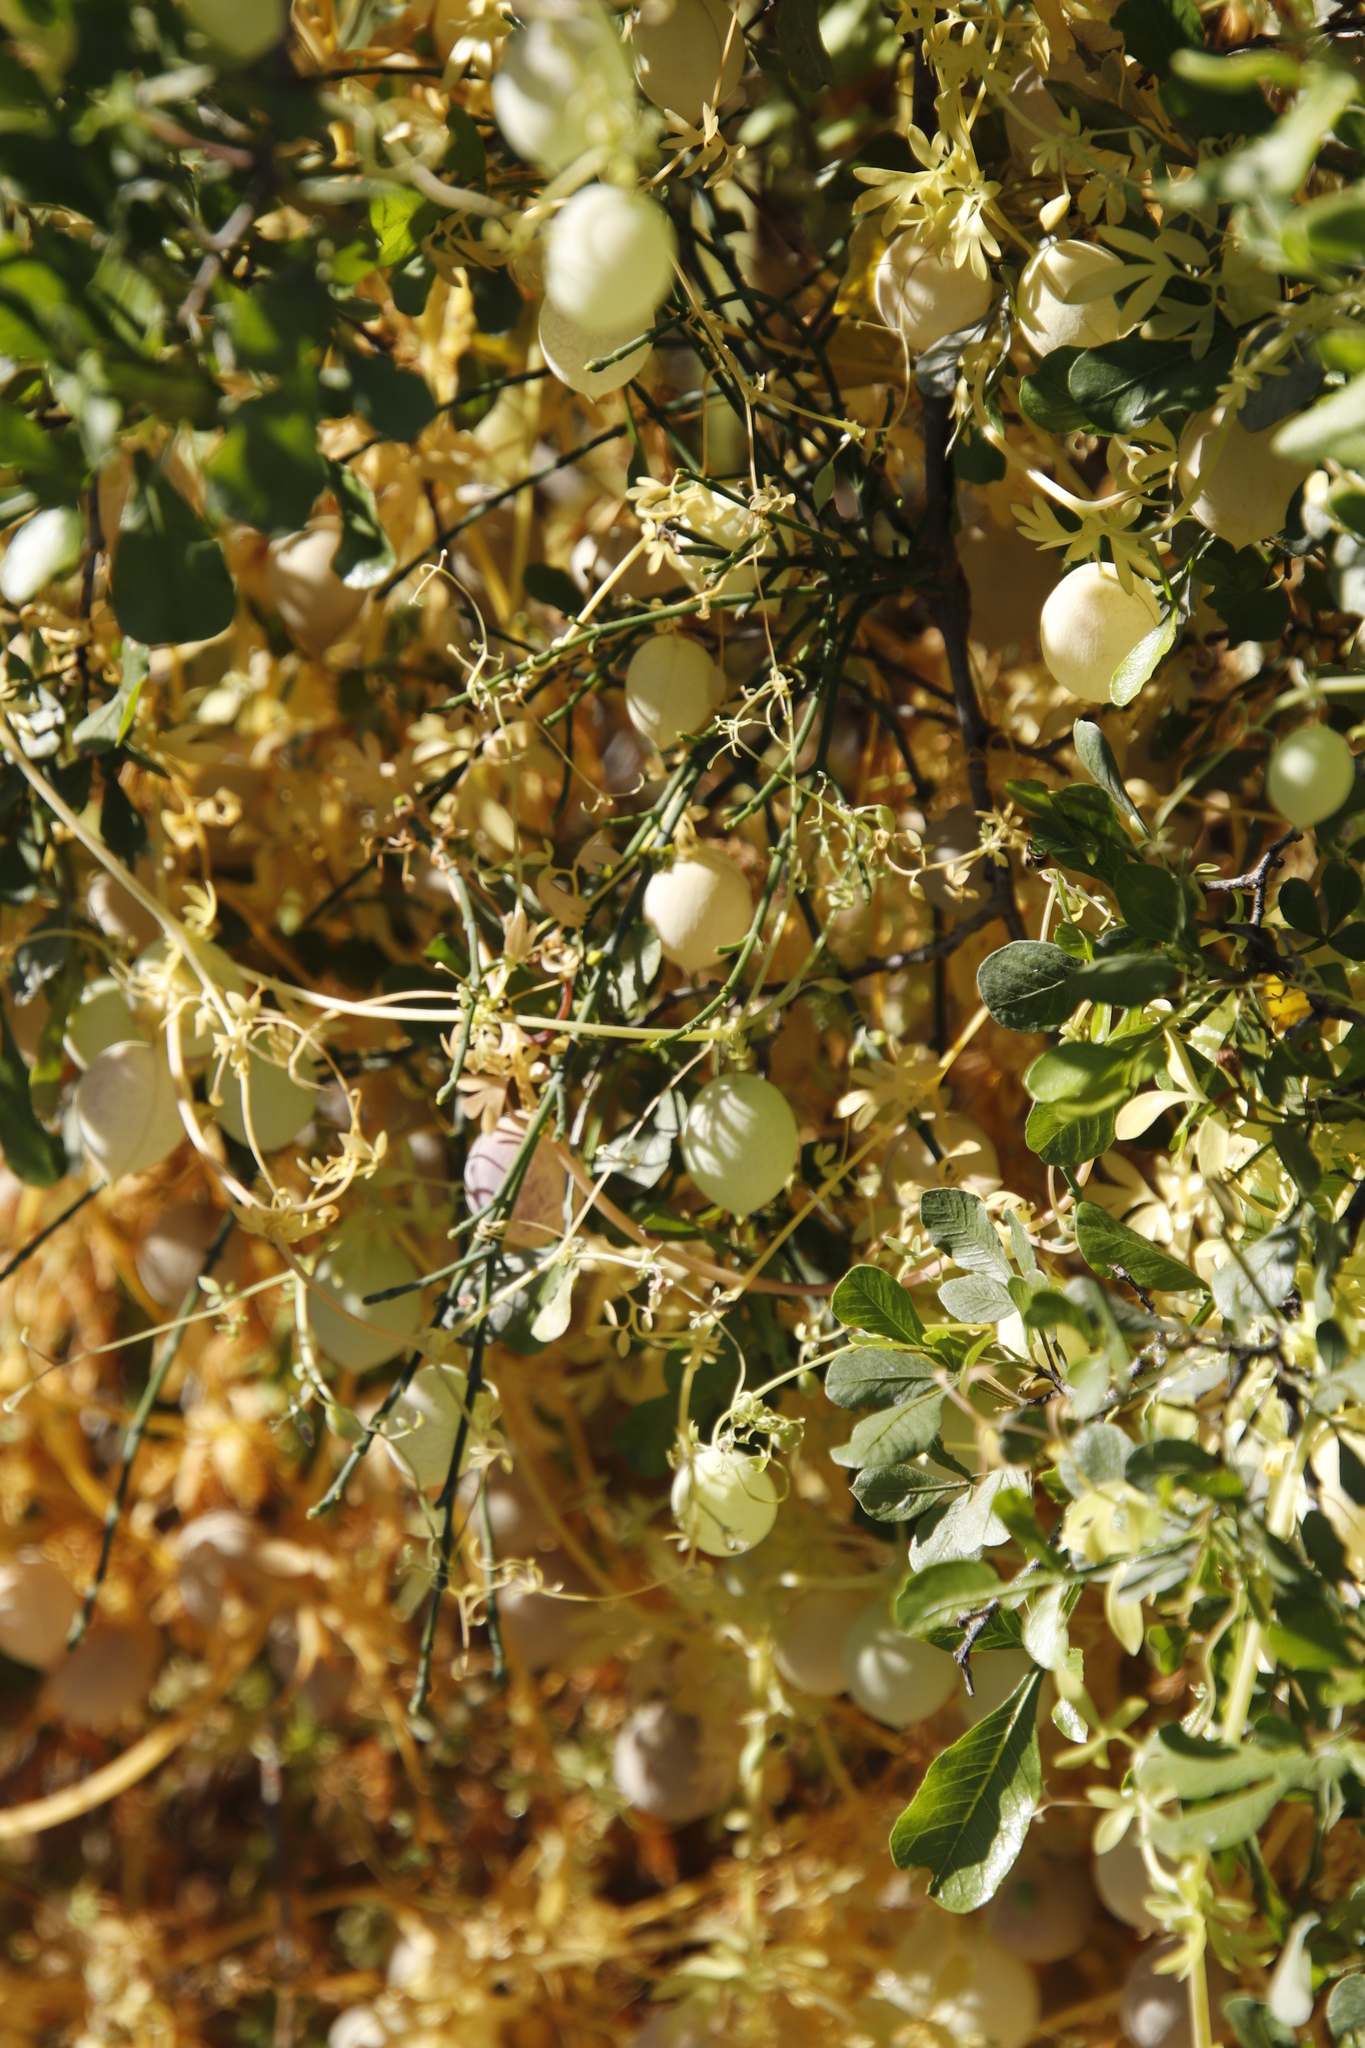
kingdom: Plantae
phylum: Tracheophyta
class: Magnoliopsida
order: Ranunculales
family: Papaveraceae
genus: Cysticapnos
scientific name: Cysticapnos vesicaria
